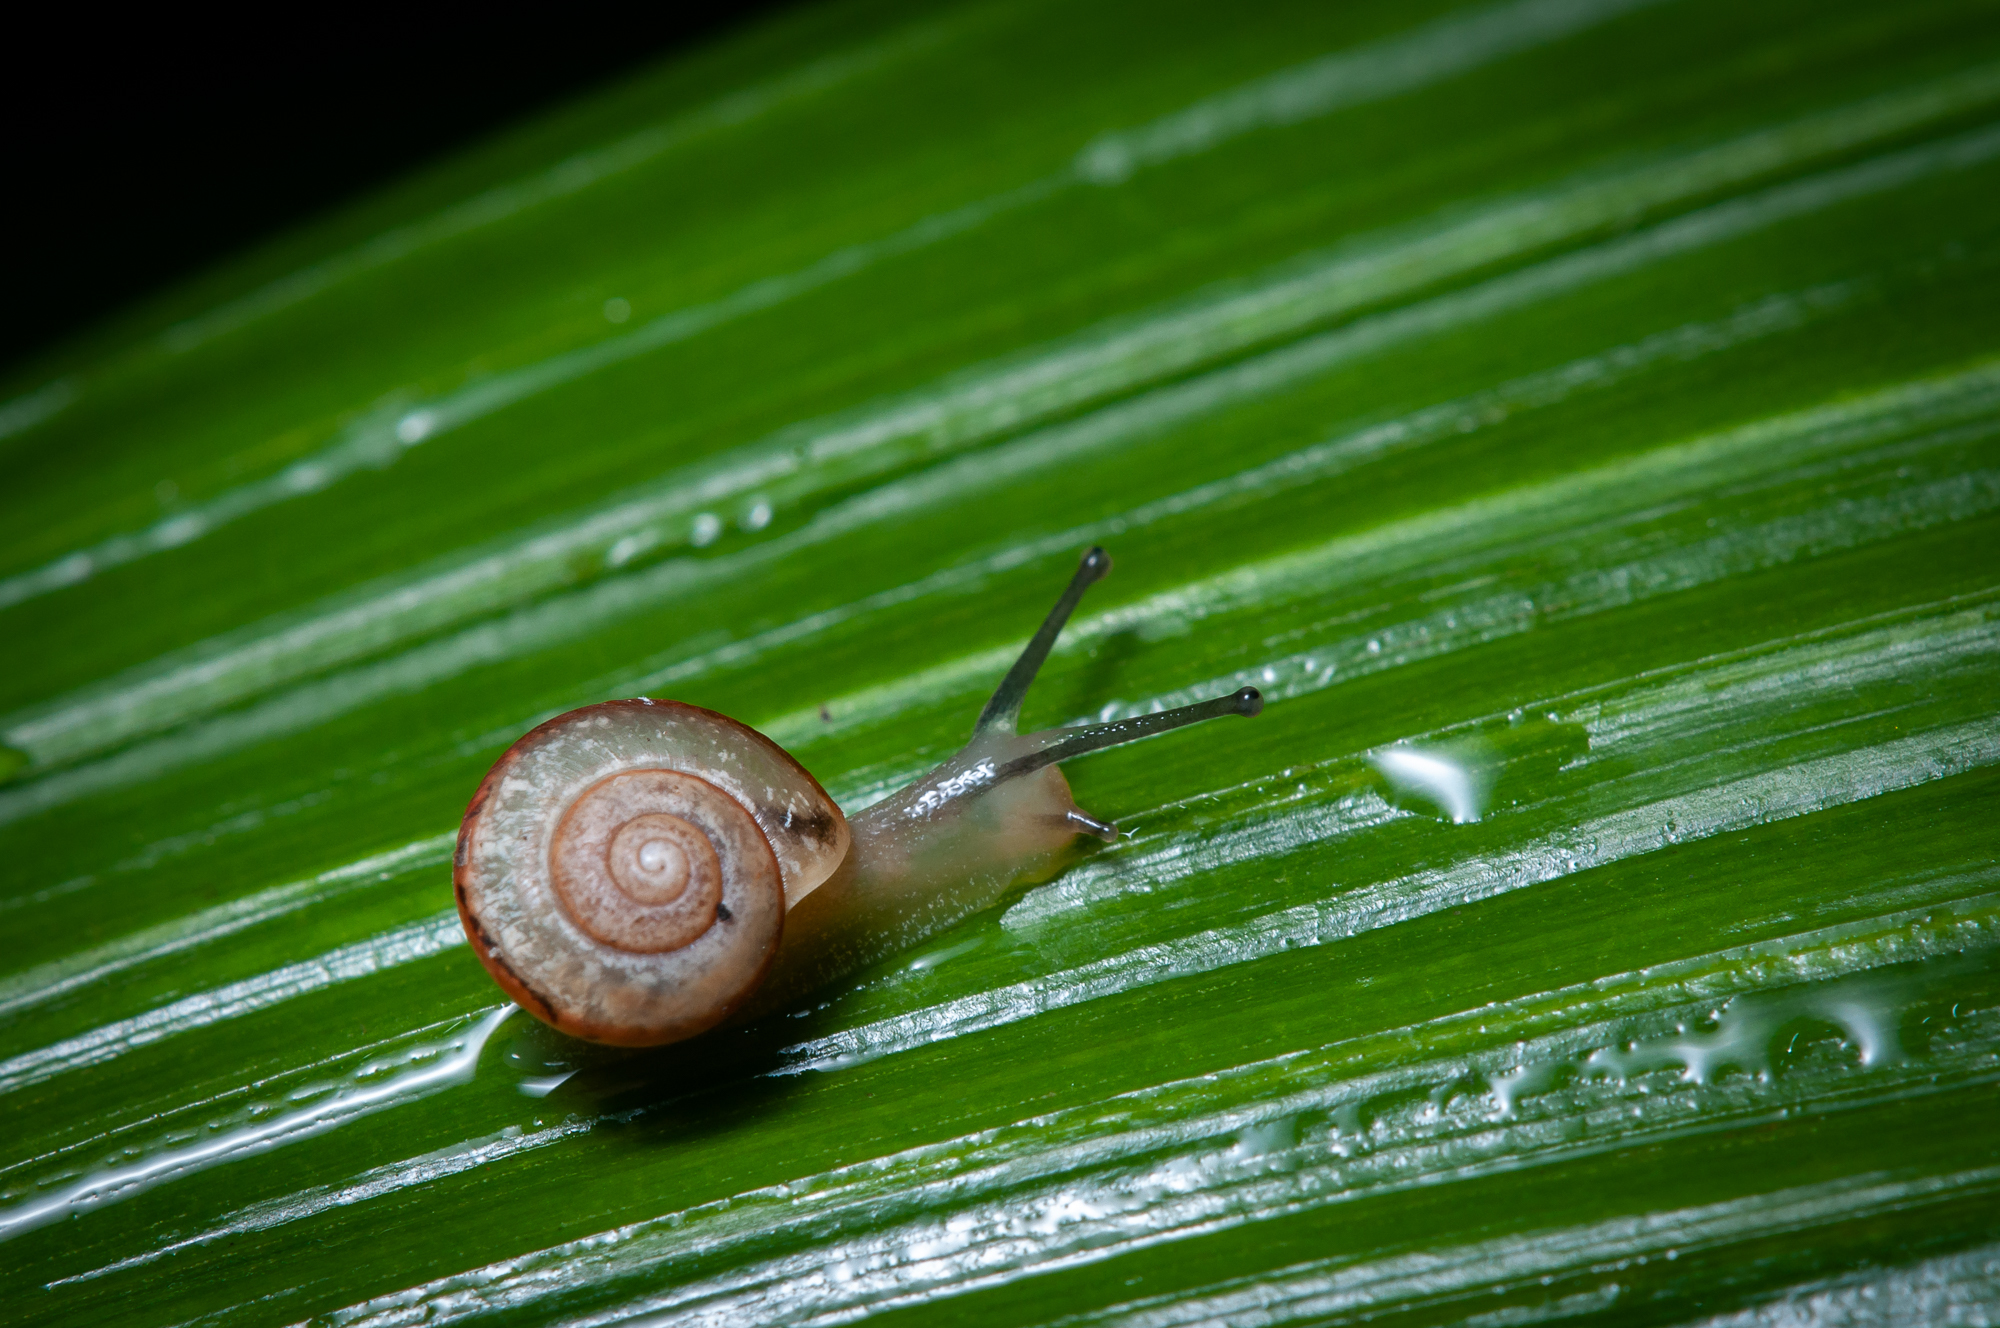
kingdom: Animalia
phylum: Mollusca
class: Gastropoda
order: Stylommatophora
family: Camaenidae
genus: Bradybaena
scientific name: Bradybaena similaris
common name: Asian trampsnail
